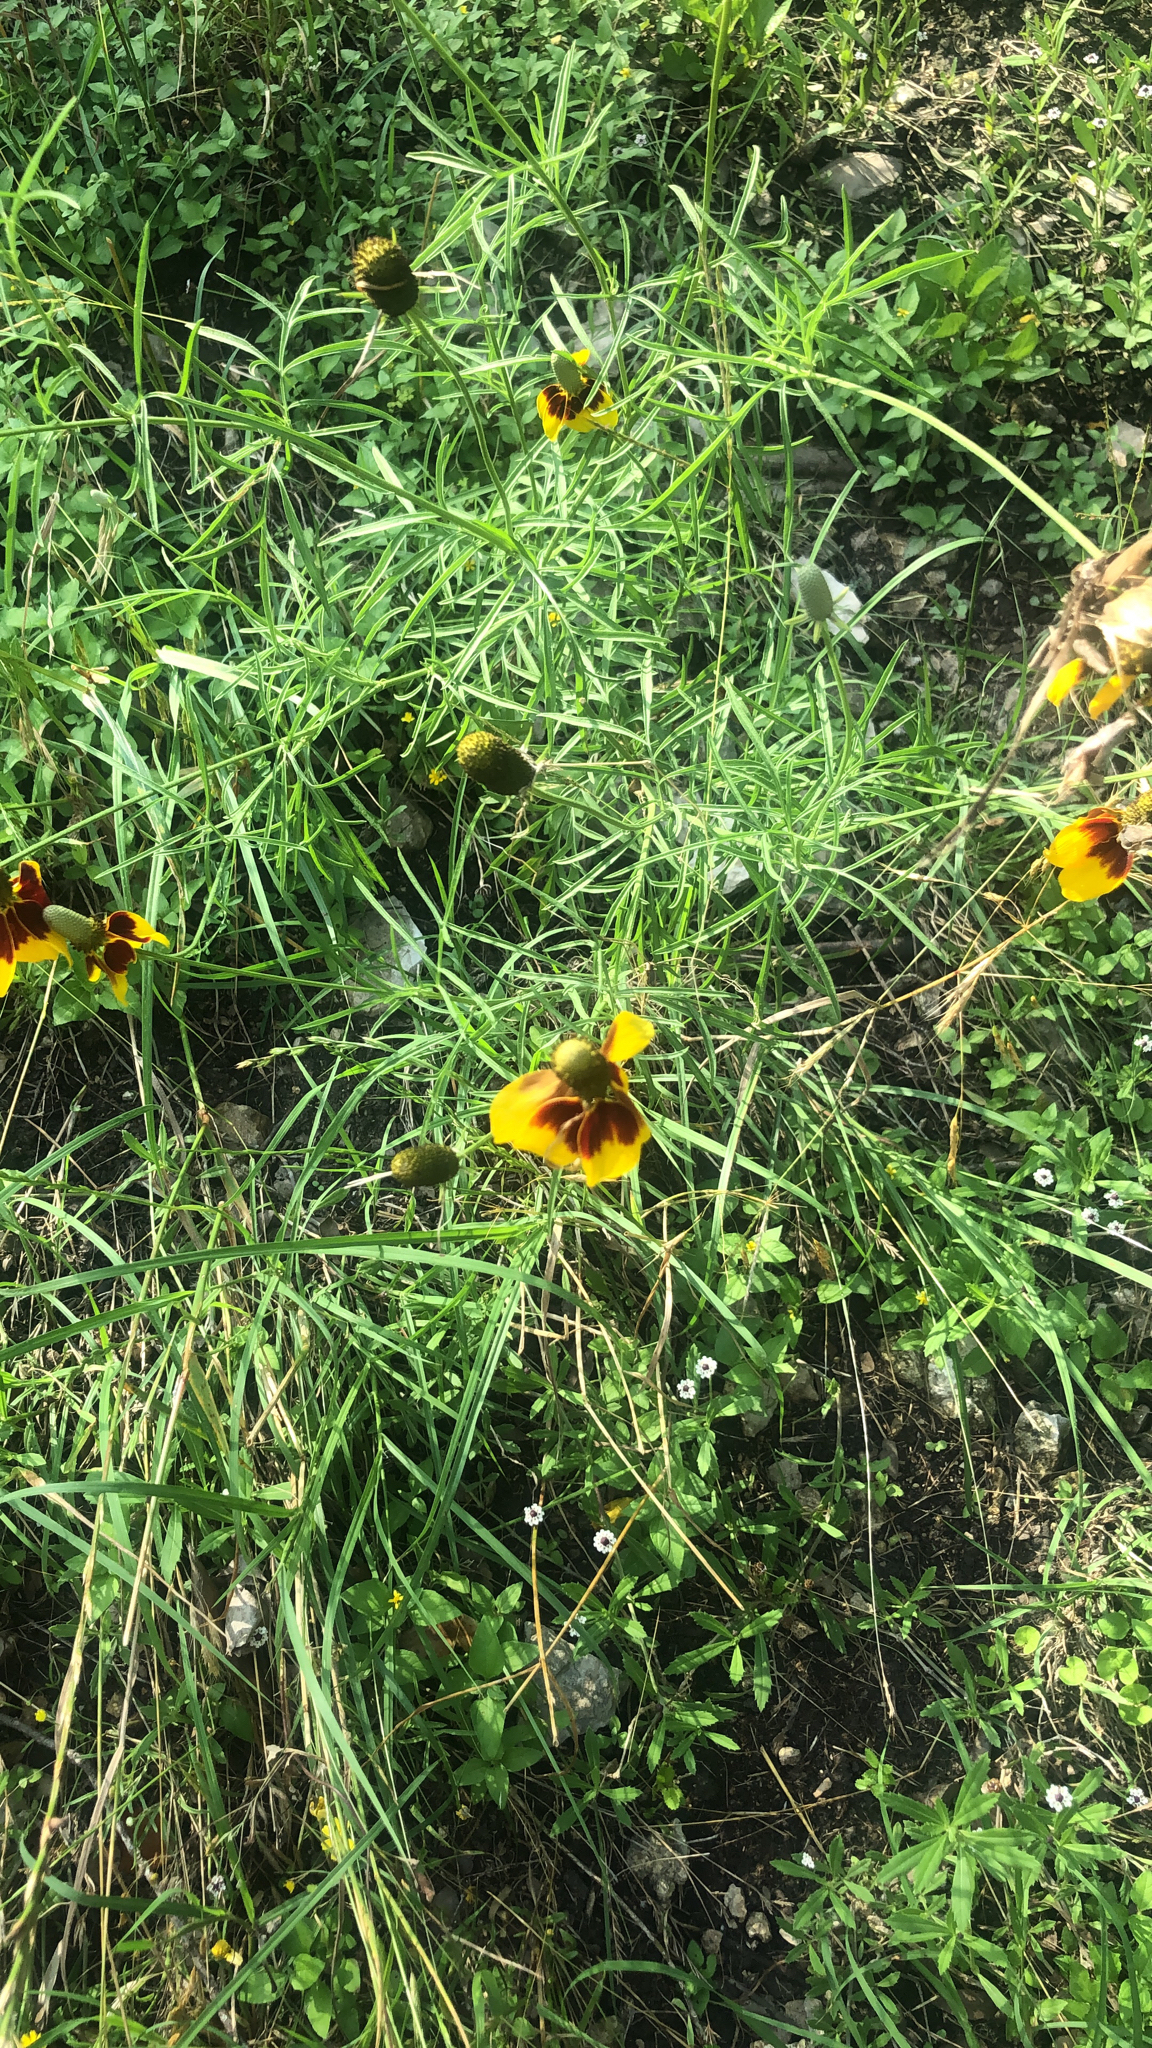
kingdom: Plantae
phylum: Tracheophyta
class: Magnoliopsida
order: Asterales
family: Asteraceae
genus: Ratibida
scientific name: Ratibida columnifera
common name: Prairie coneflower
